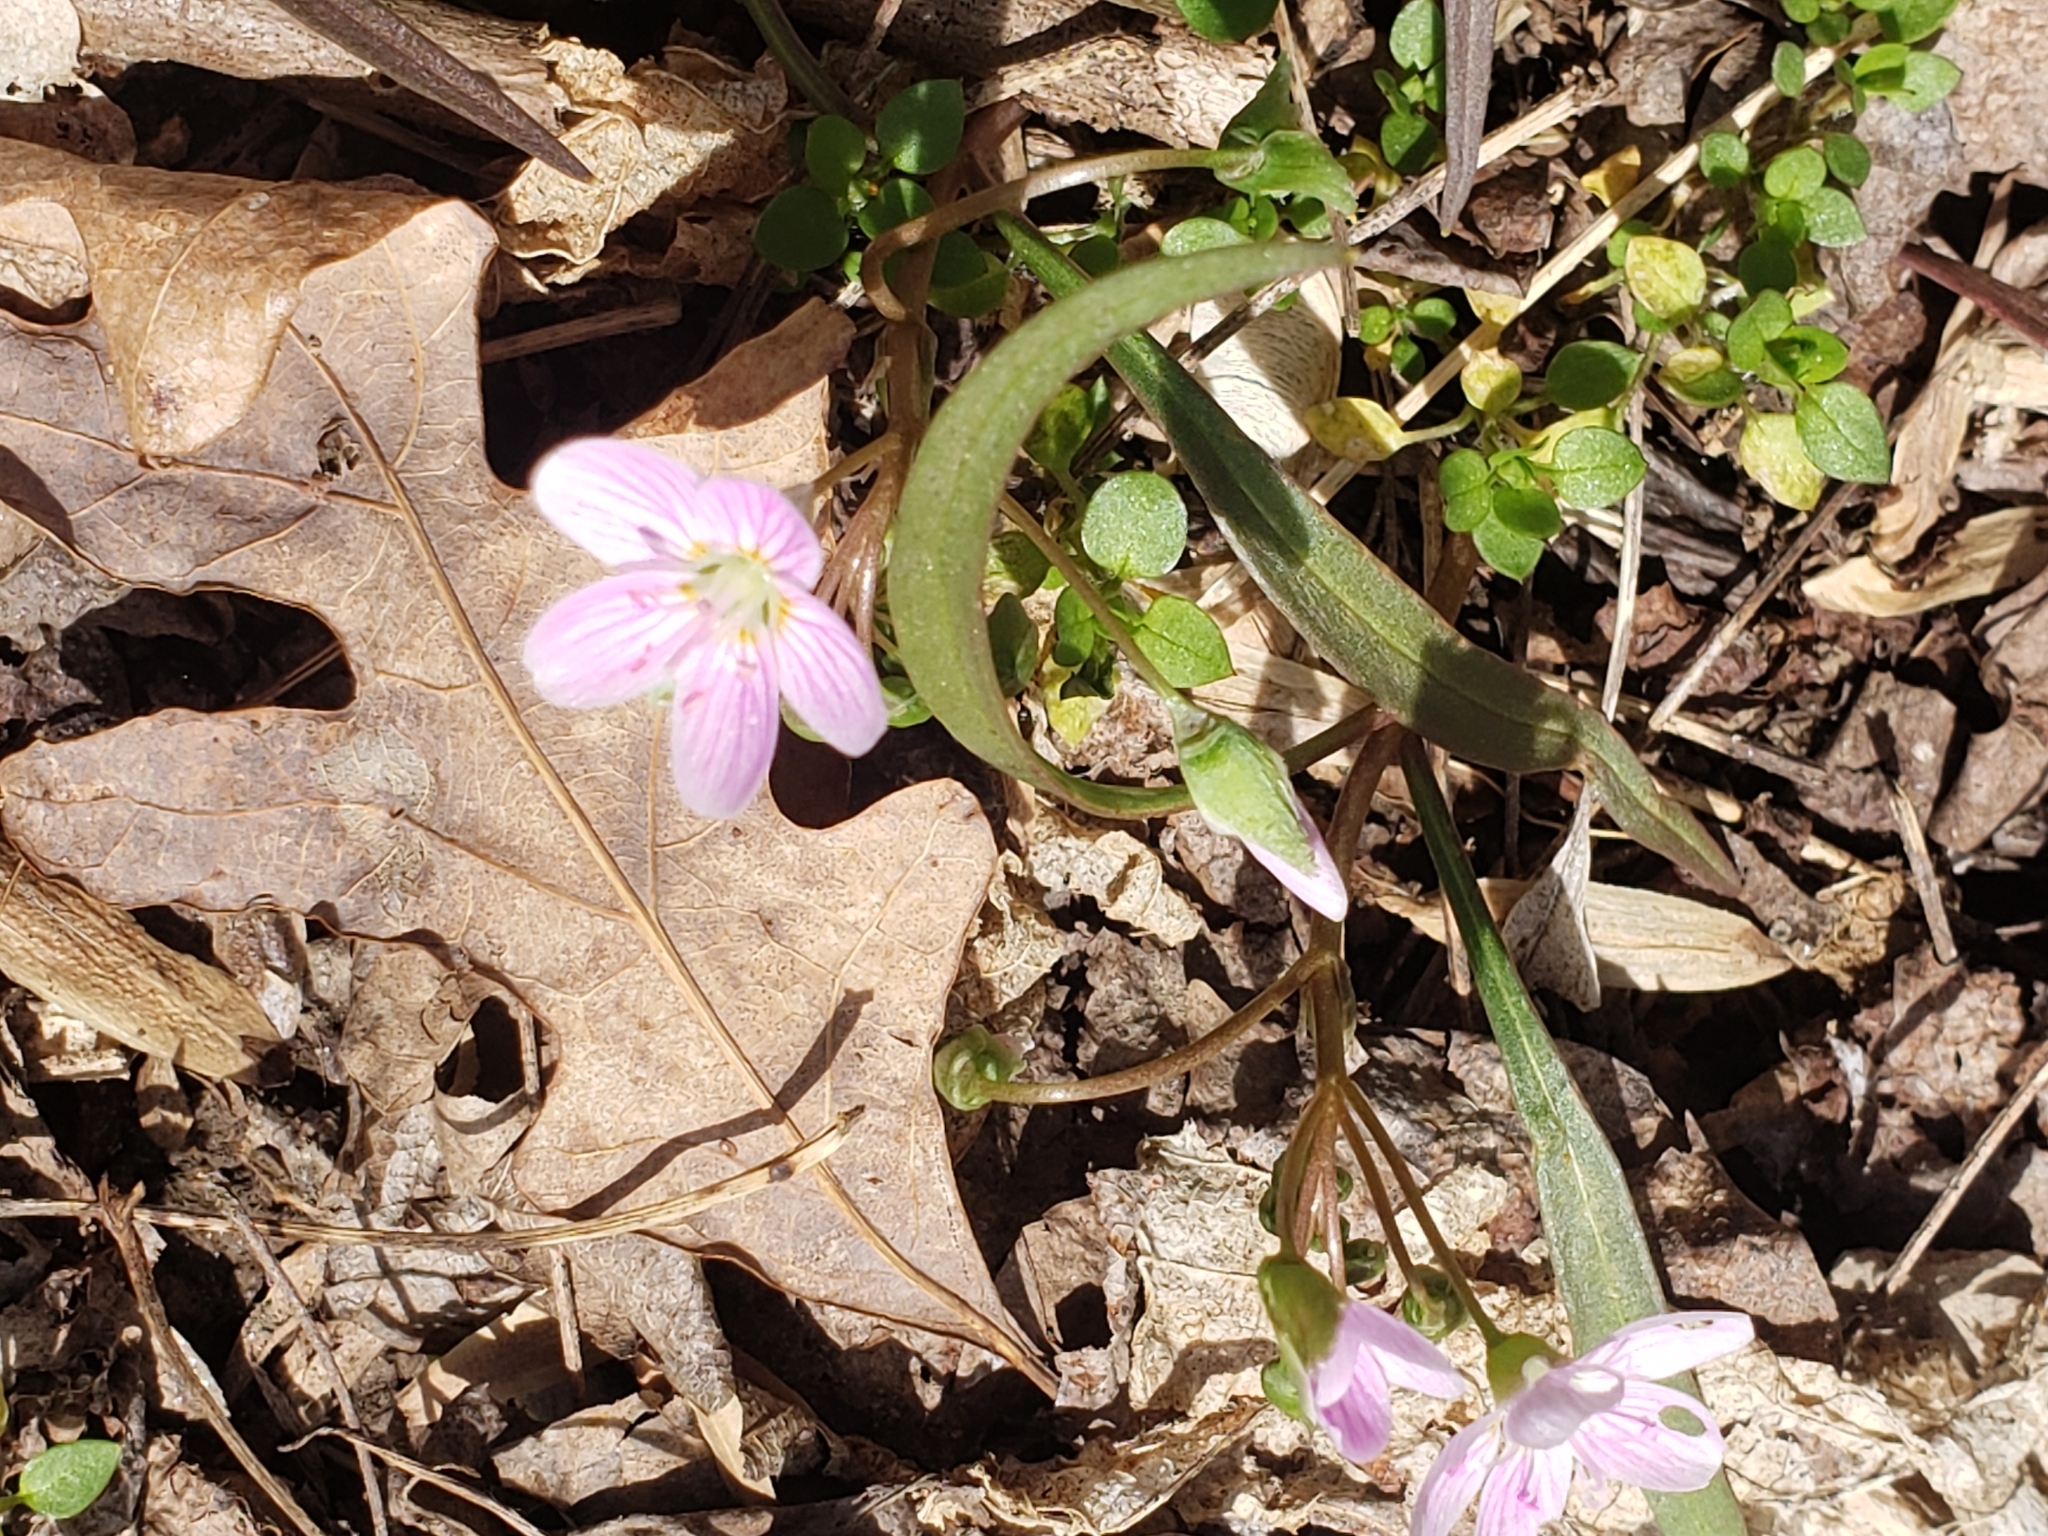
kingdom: Plantae
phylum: Tracheophyta
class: Magnoliopsida
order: Caryophyllales
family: Montiaceae
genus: Claytonia
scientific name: Claytonia virginica
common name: Virginia springbeauty
